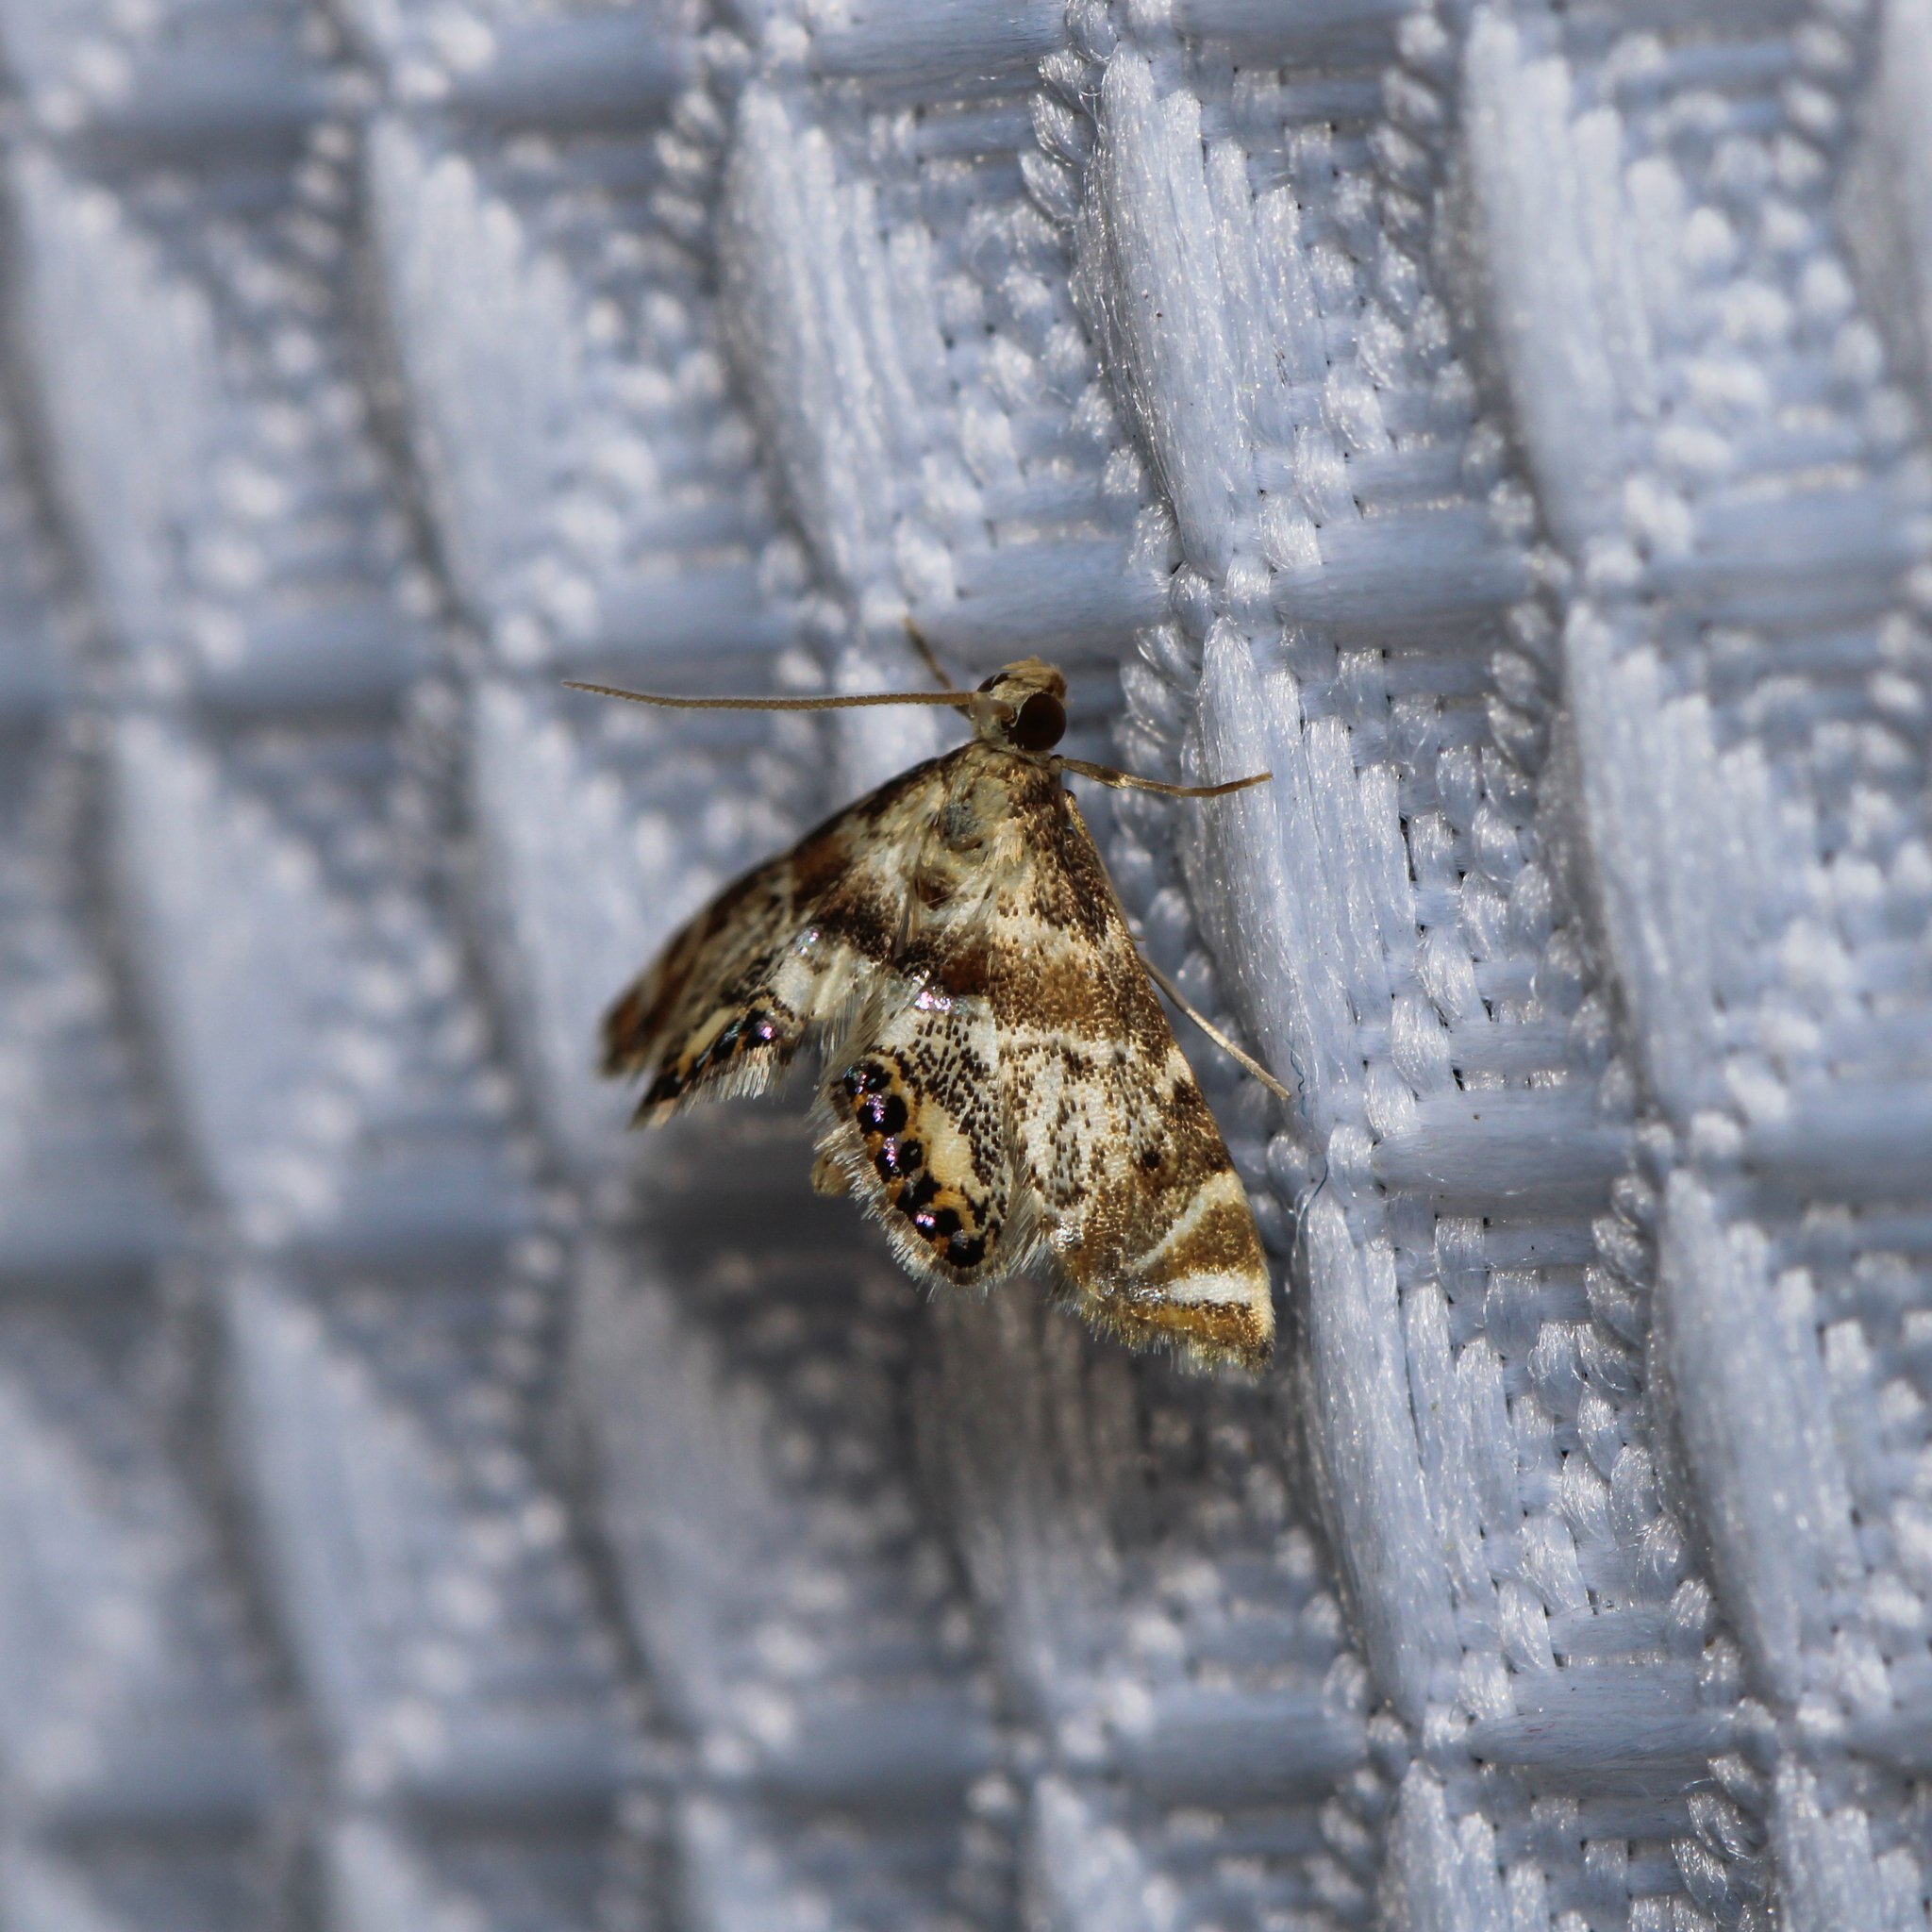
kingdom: Animalia
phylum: Arthropoda
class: Insecta
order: Lepidoptera
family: Crambidae
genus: Petrophila
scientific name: Petrophila fulicalis
